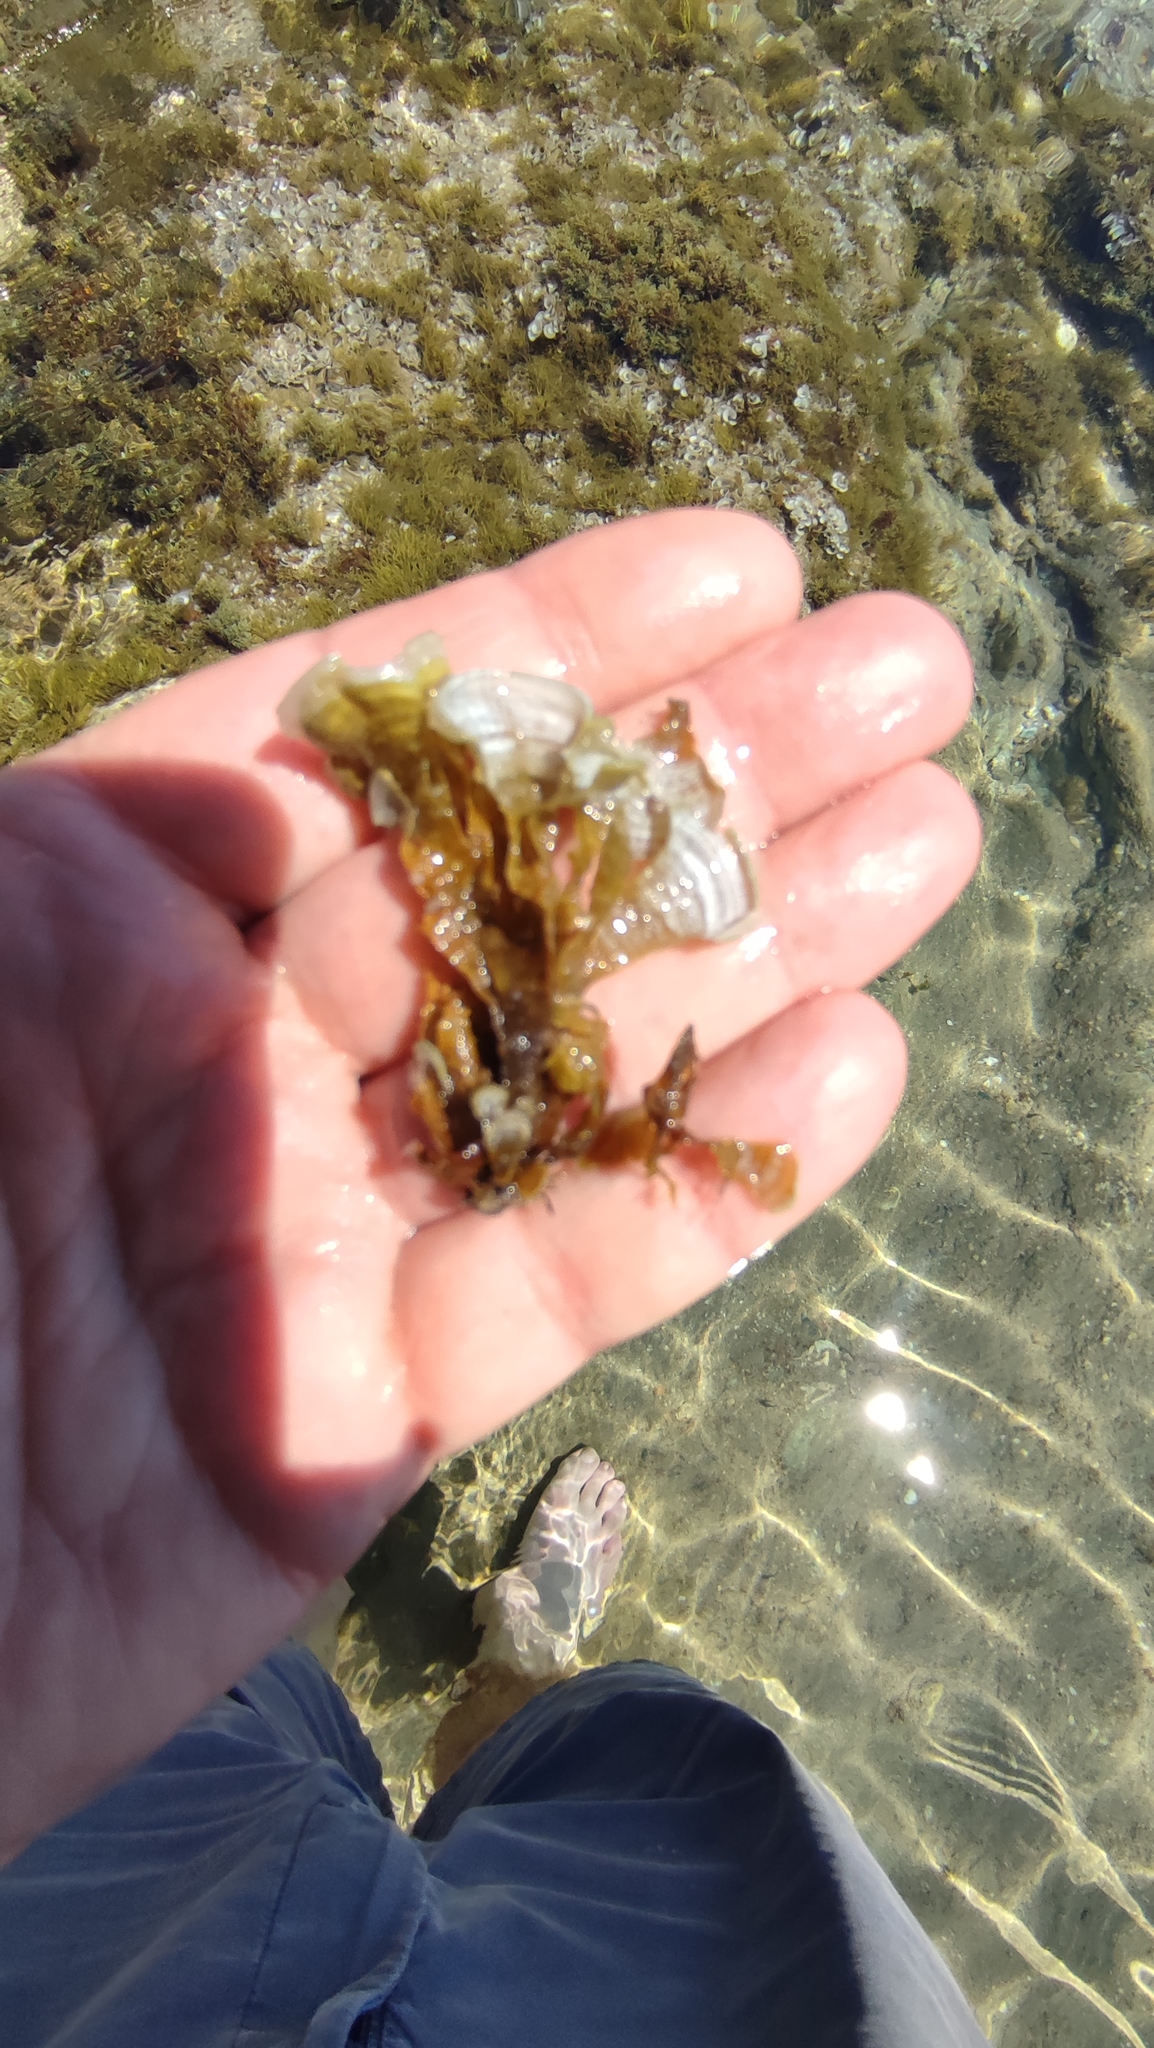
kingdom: Chromista
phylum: Ochrophyta
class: Phaeophyceae
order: Dictyotales
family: Dictyotaceae
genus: Padina
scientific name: Padina pavonica
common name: Turkey feather alga
